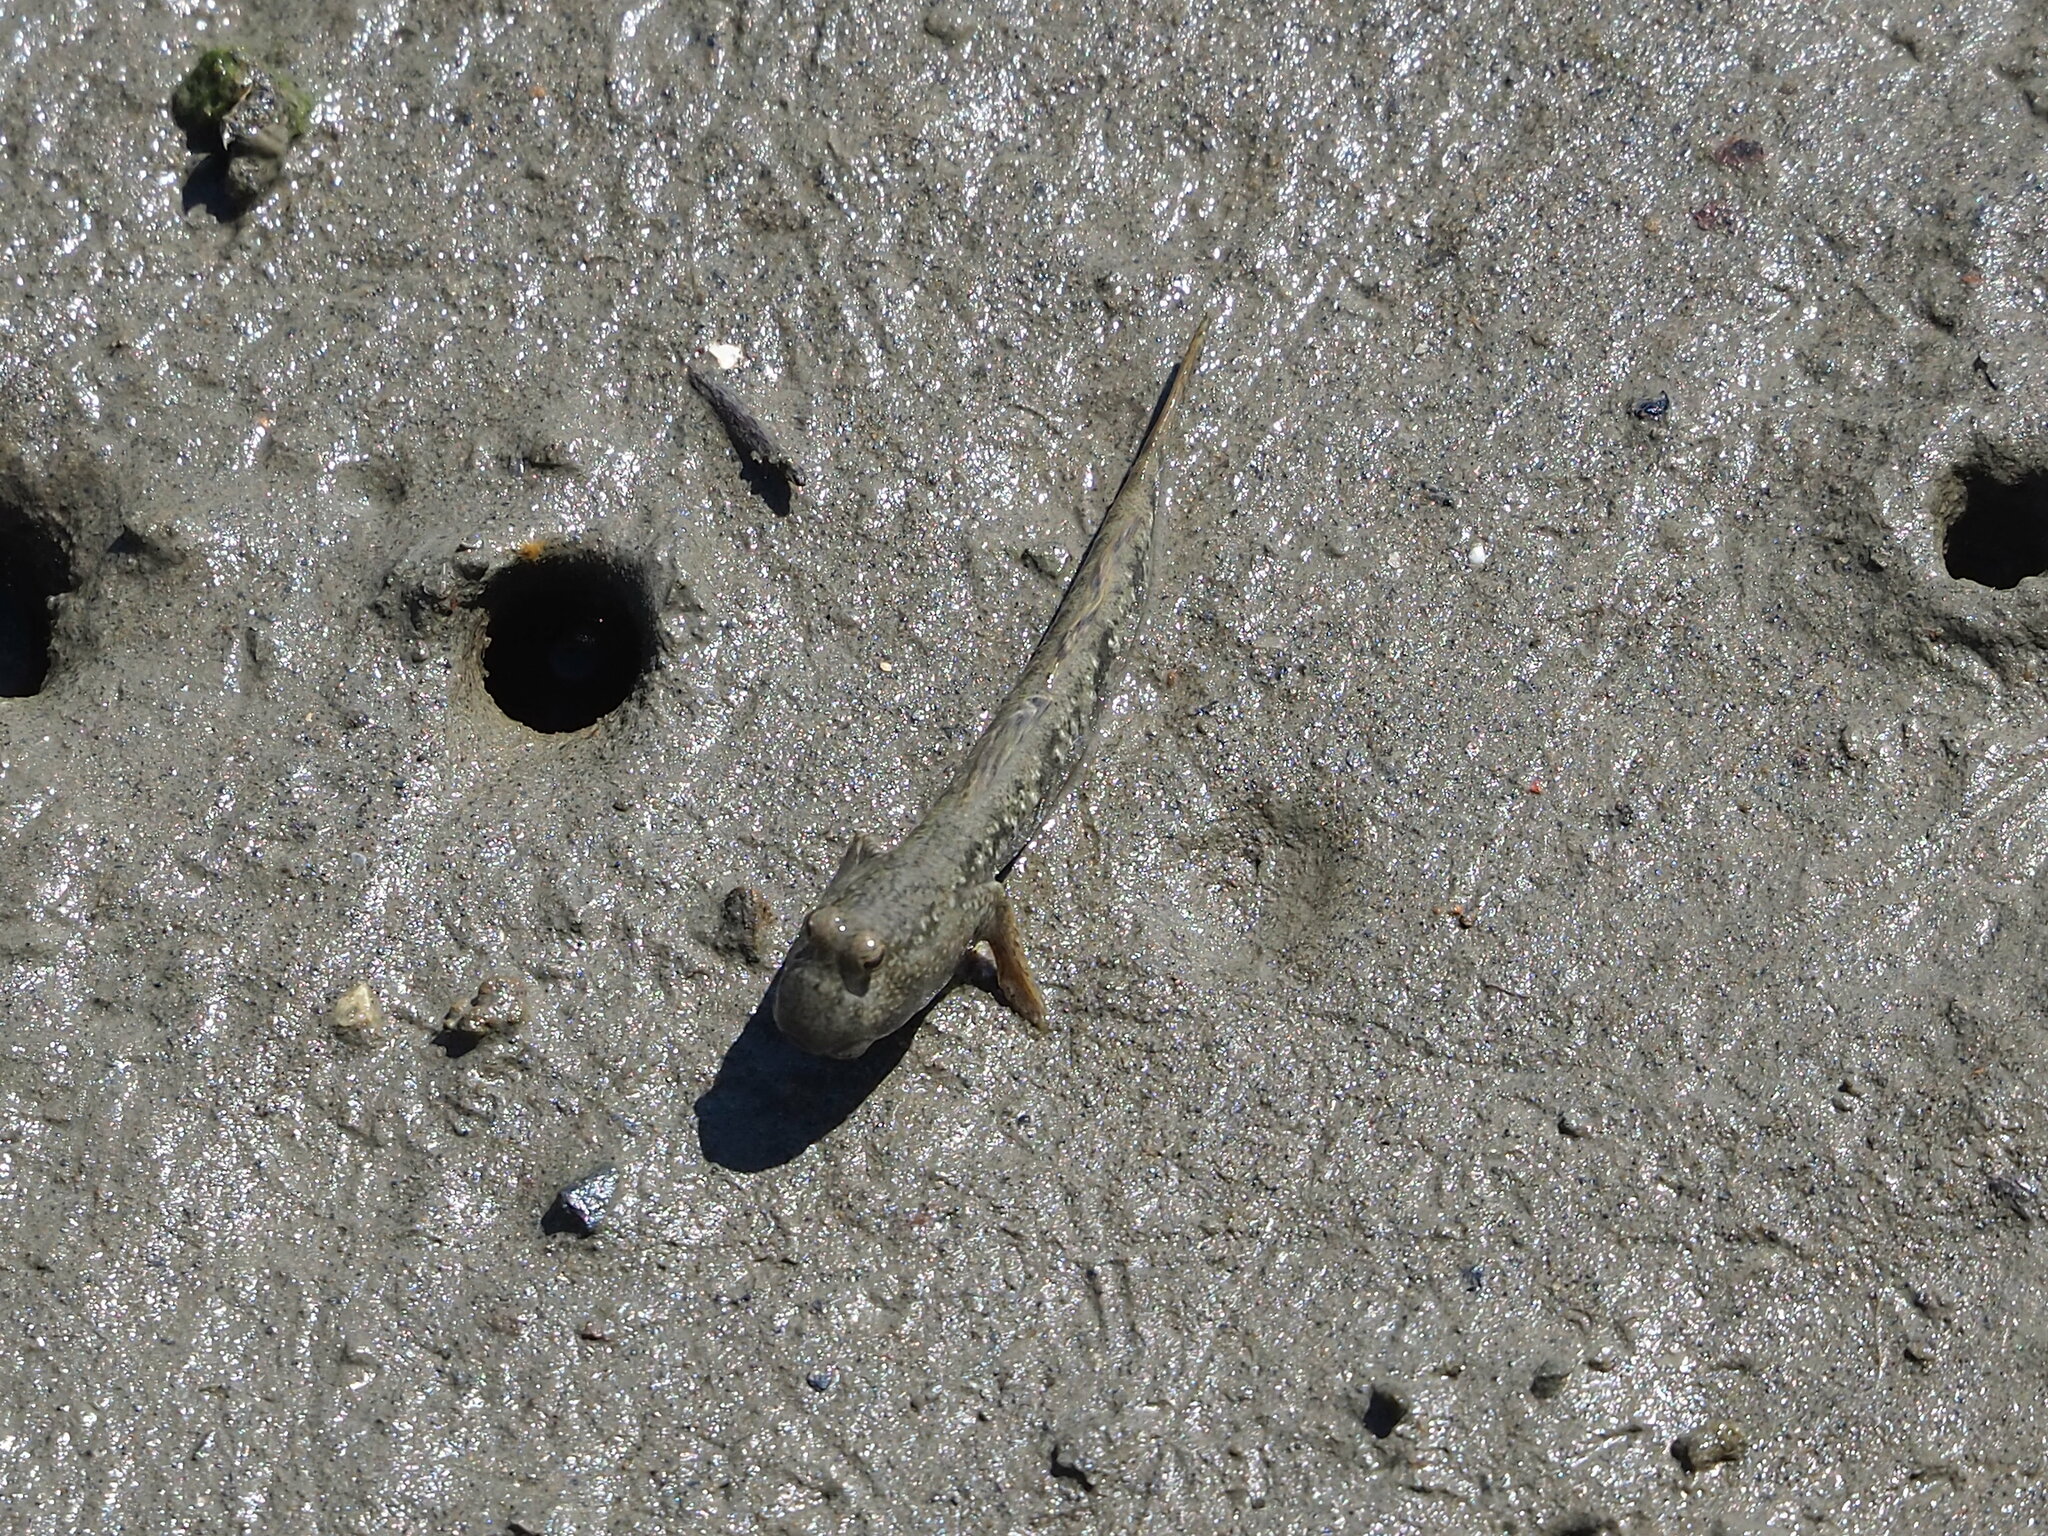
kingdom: Animalia
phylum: Chordata
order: Perciformes
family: Gobiidae
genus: Periophthalmus
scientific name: Periophthalmus modestus
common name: Black goby
